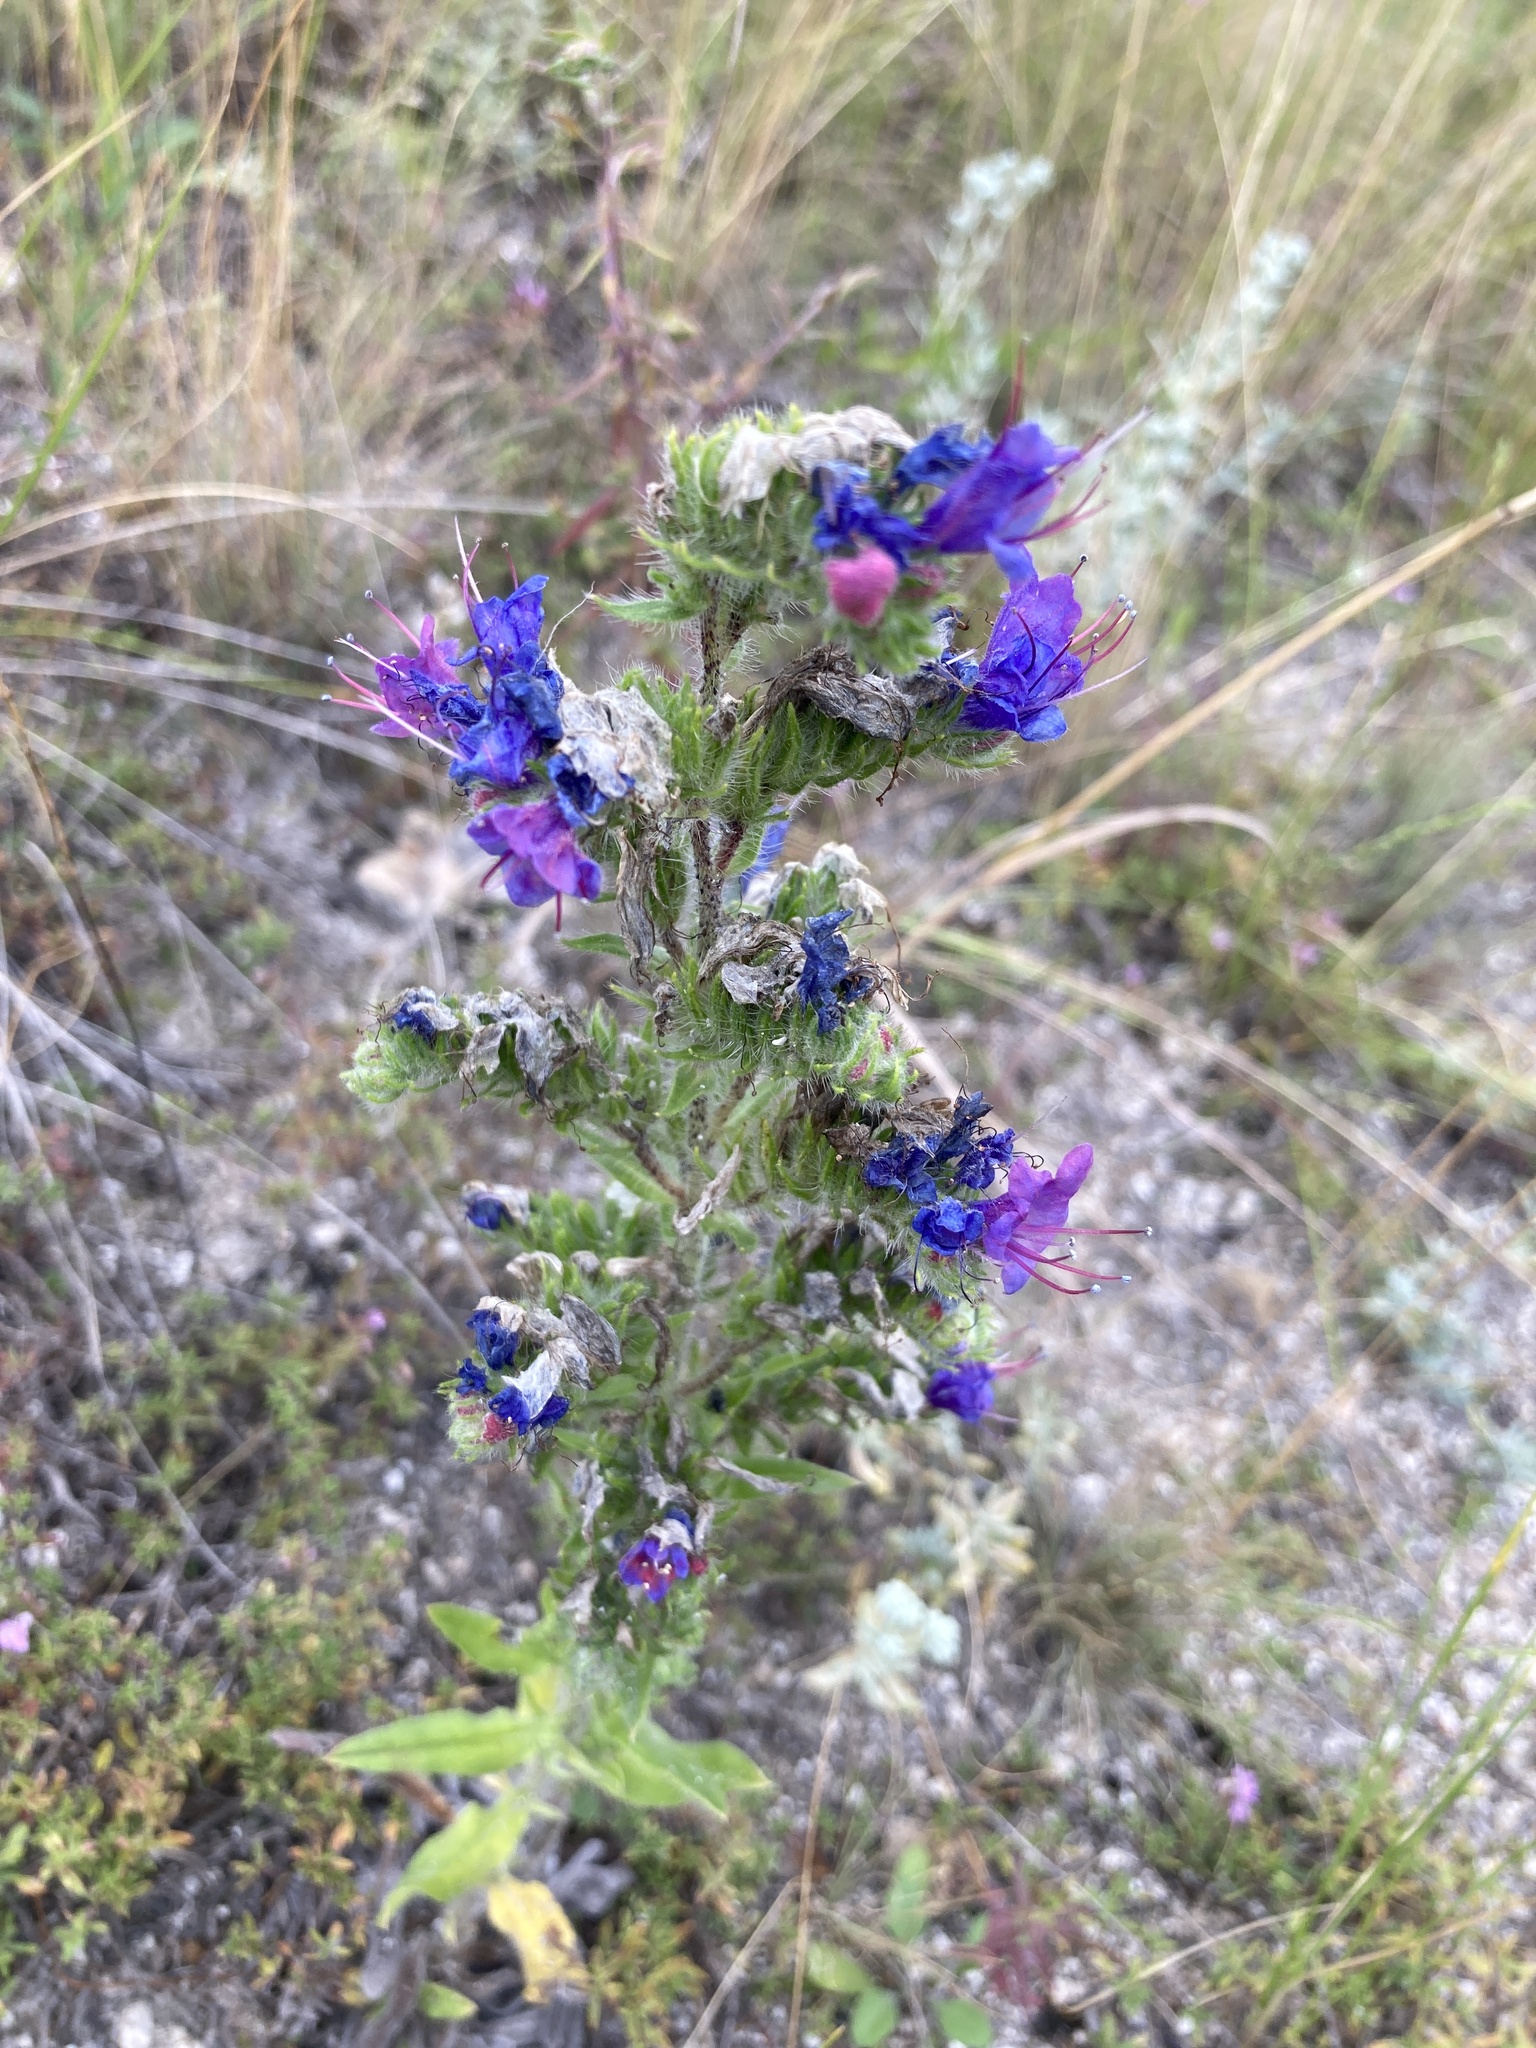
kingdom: Plantae
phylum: Tracheophyta
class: Magnoliopsida
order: Boraginales
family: Boraginaceae
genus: Echium
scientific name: Echium vulgare
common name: Common viper's bugloss
